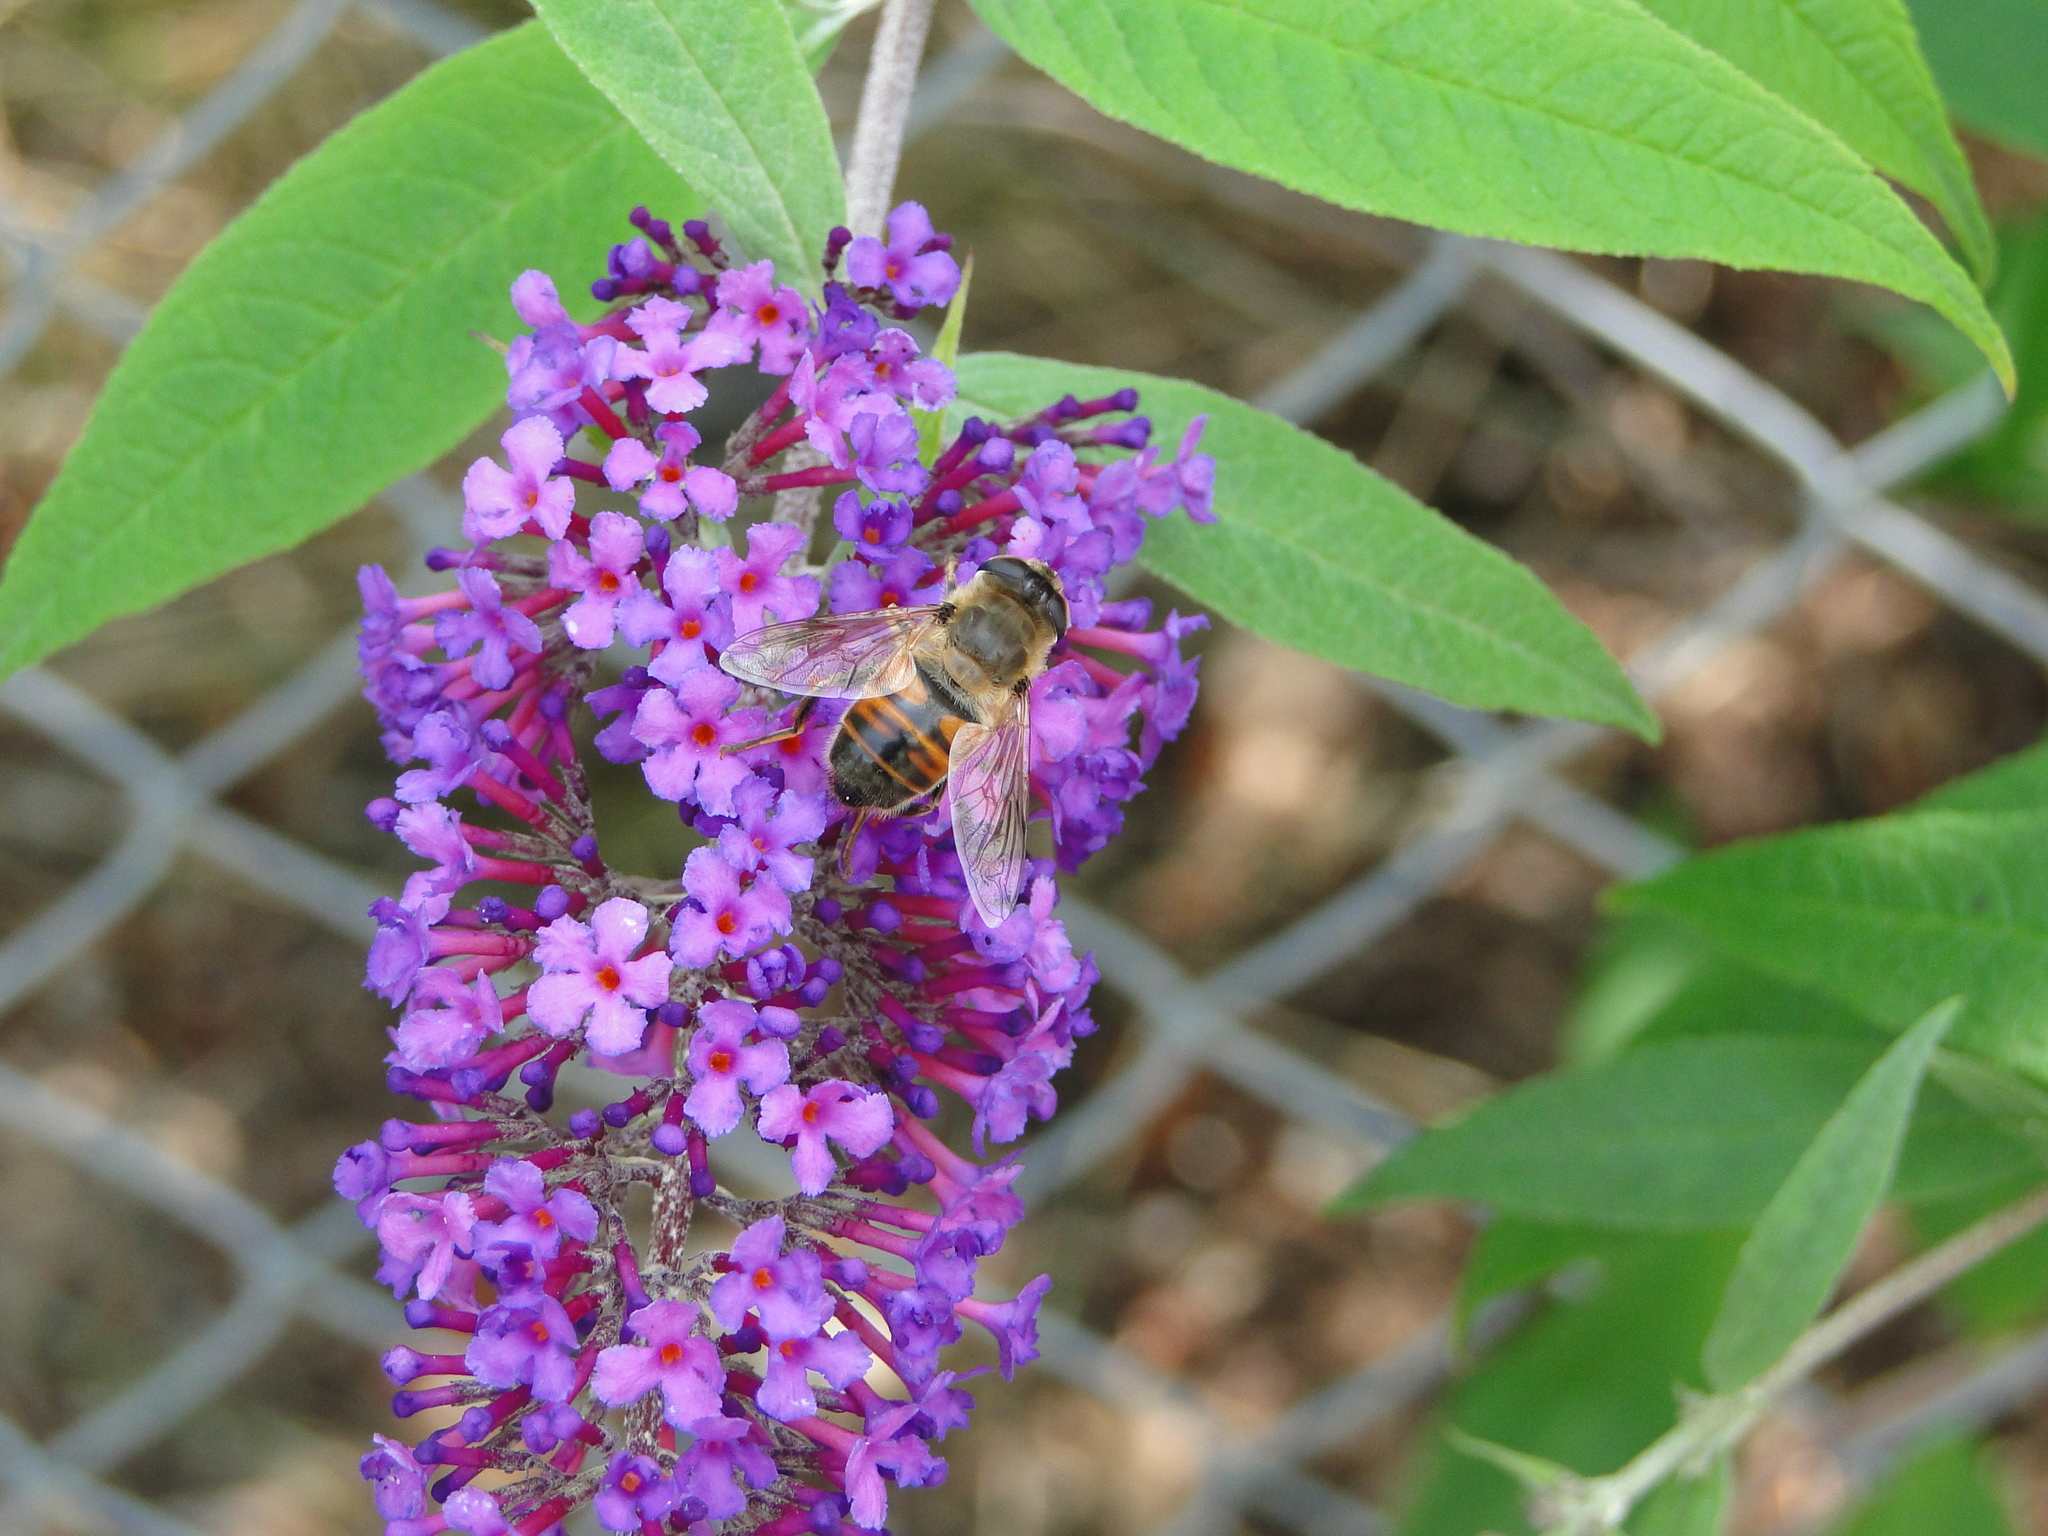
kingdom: Animalia
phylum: Arthropoda
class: Insecta
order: Diptera
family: Syrphidae
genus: Eristalis
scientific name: Eristalis tenax
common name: Drone fly
